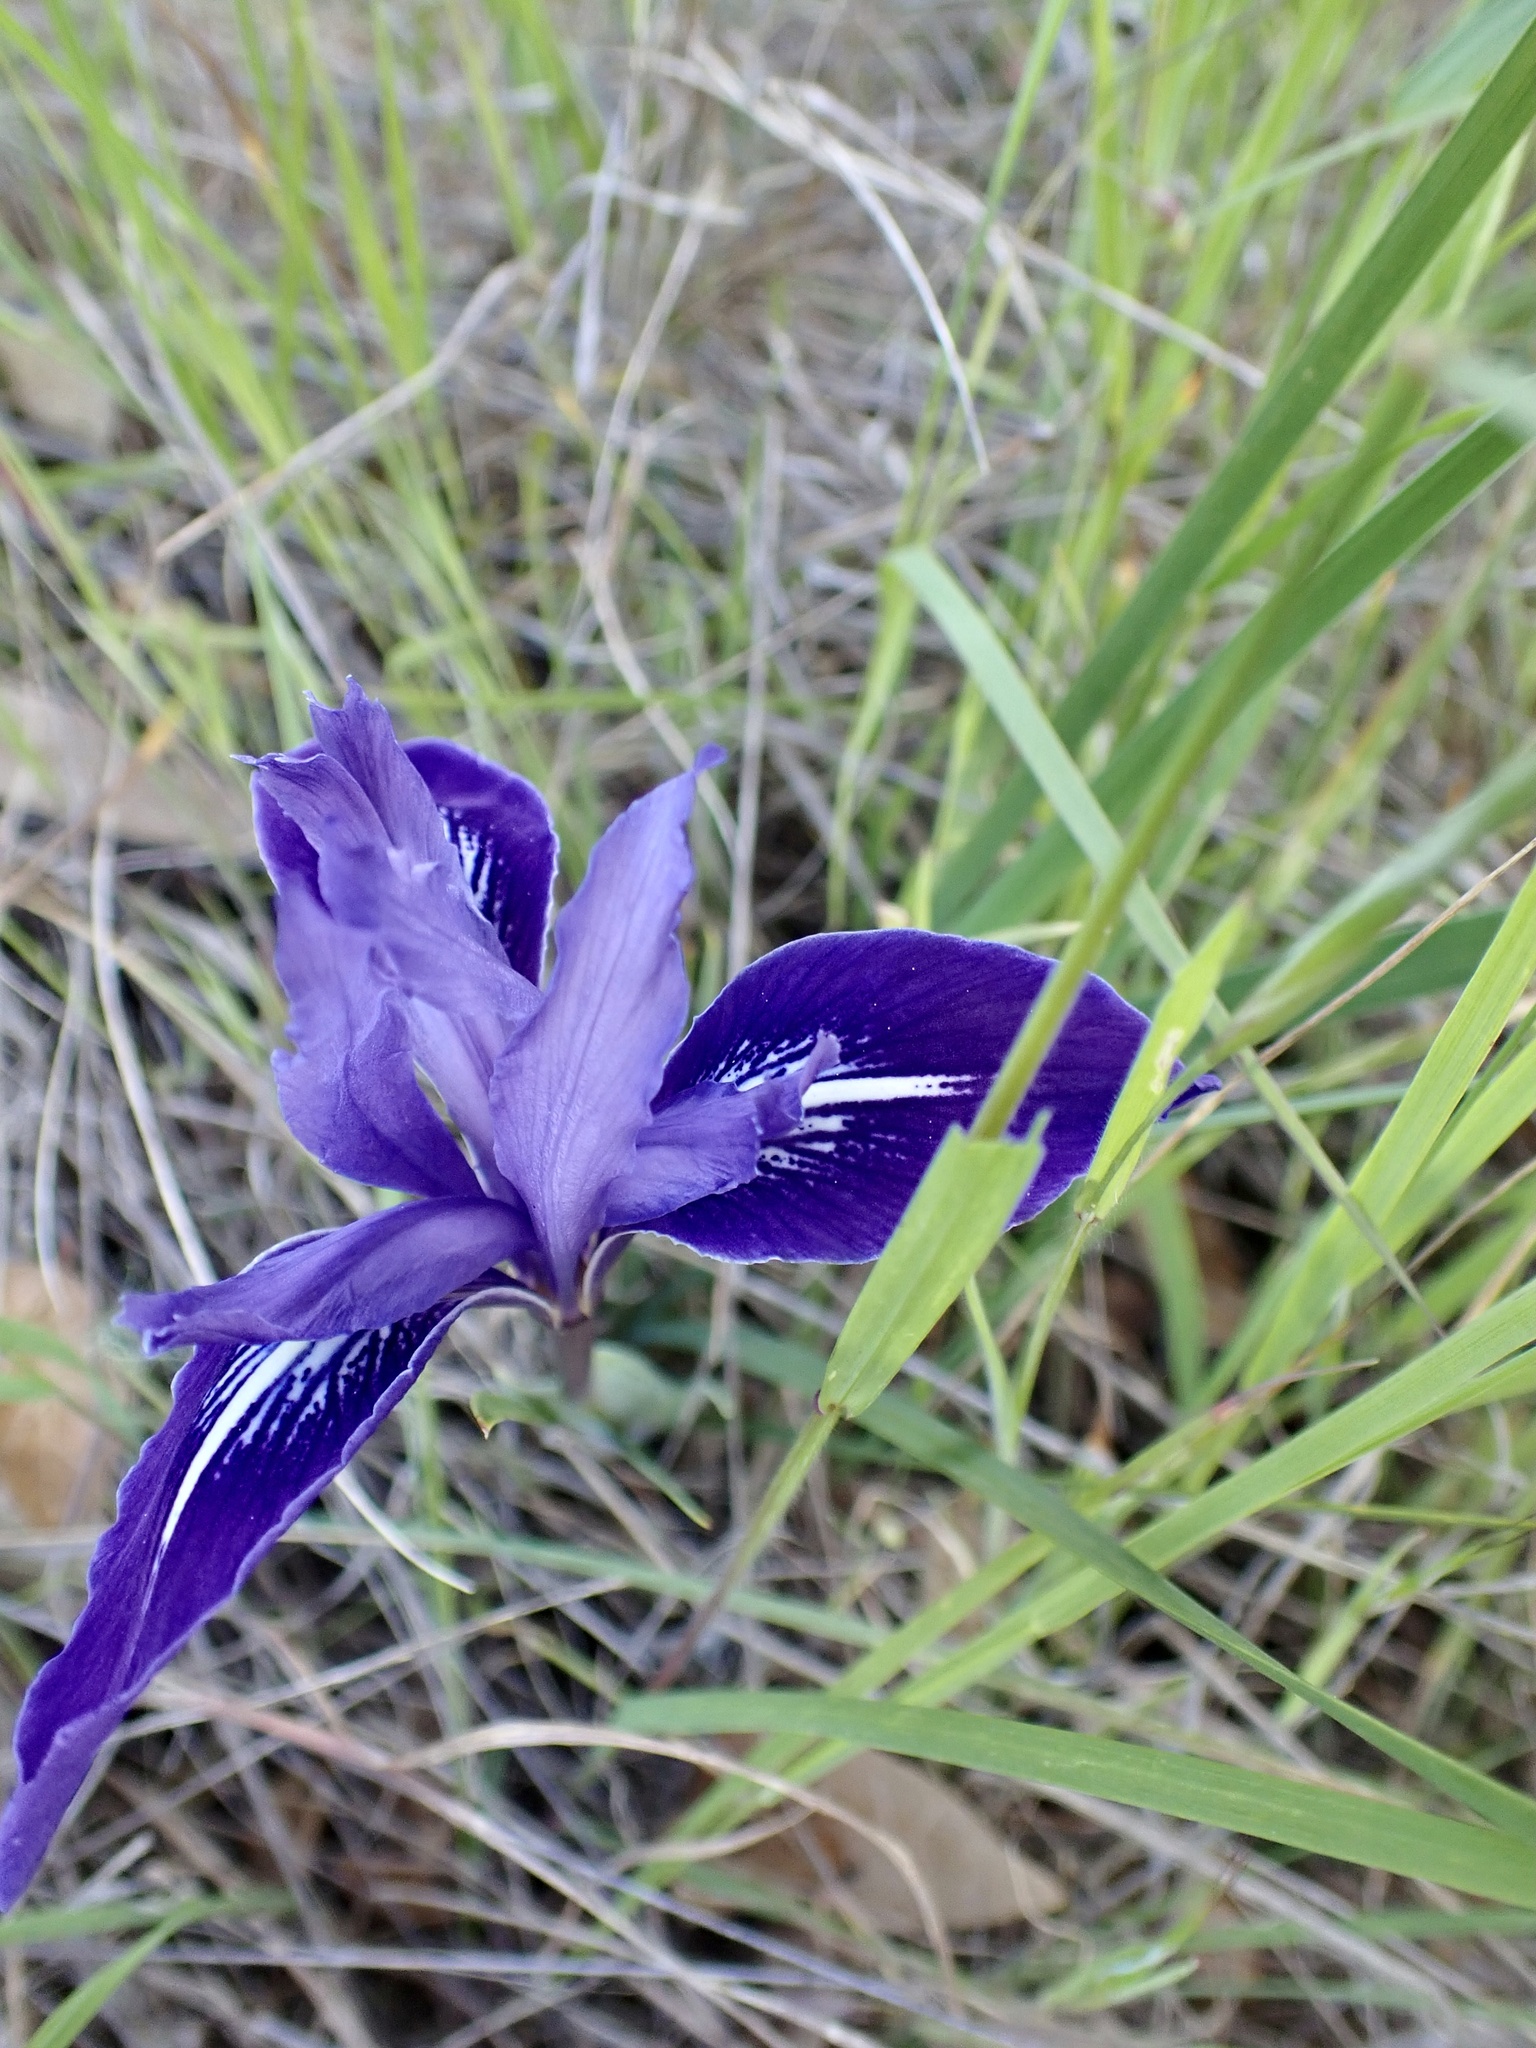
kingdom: Plantae
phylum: Tracheophyta
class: Liliopsida
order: Asparagales
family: Iridaceae
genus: Iris
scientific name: Iris macrosiphon
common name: Ground iris
